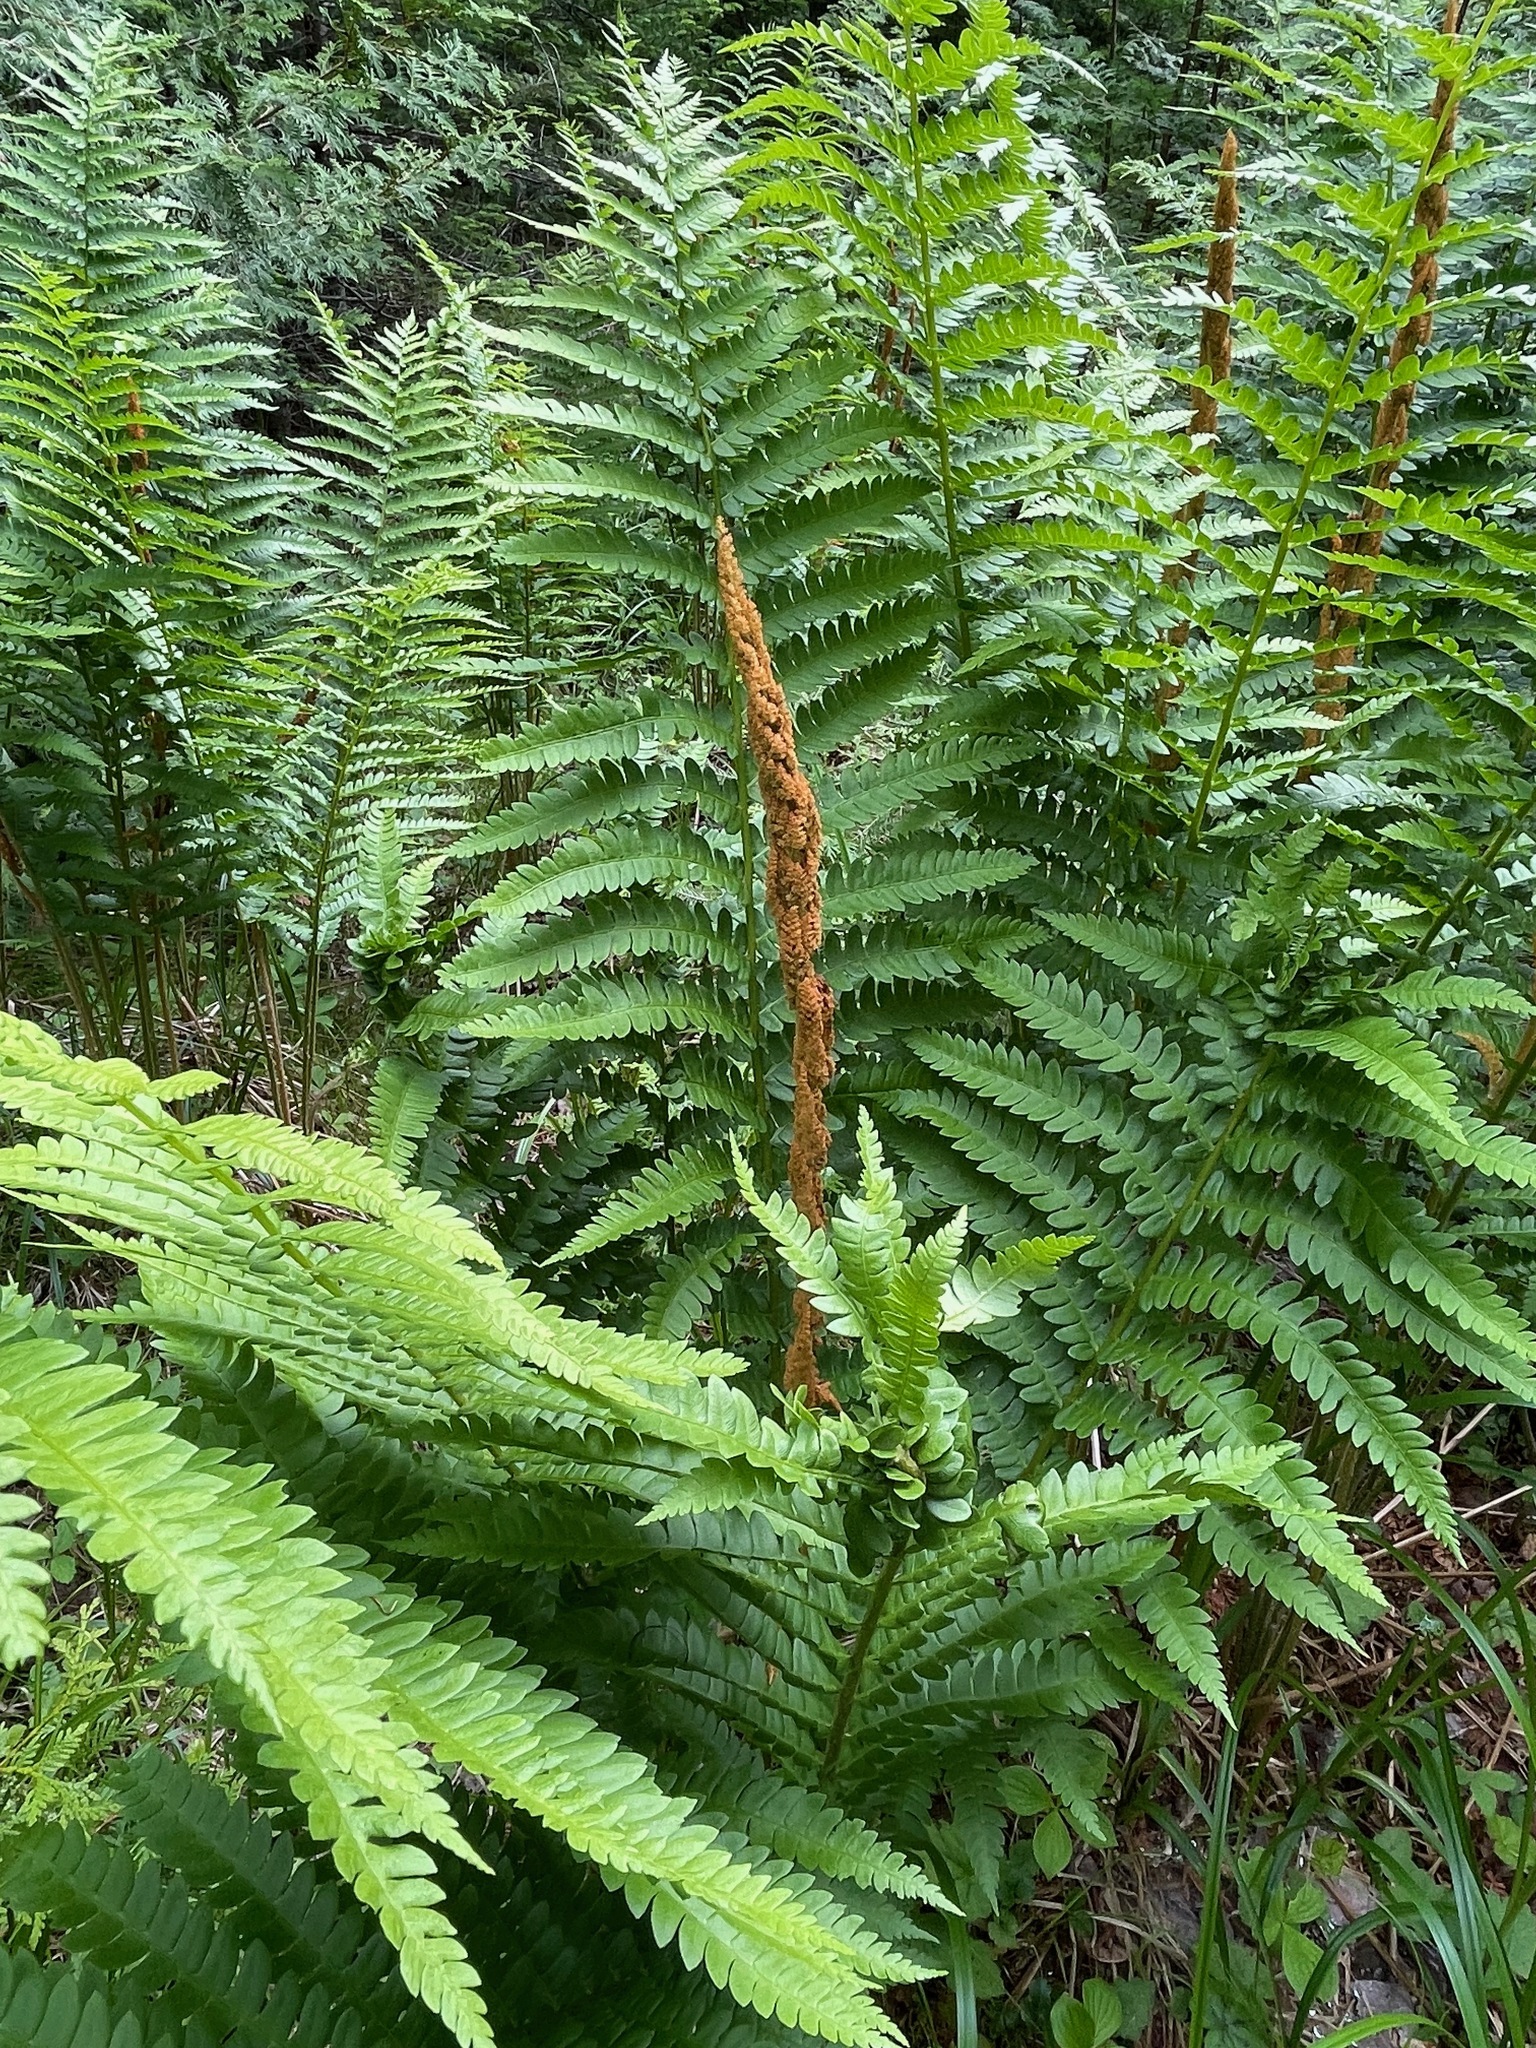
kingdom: Plantae
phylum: Tracheophyta
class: Polypodiopsida
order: Osmundales
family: Osmundaceae
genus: Osmundastrum
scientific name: Osmundastrum cinnamomeum
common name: Cinnamon fern
